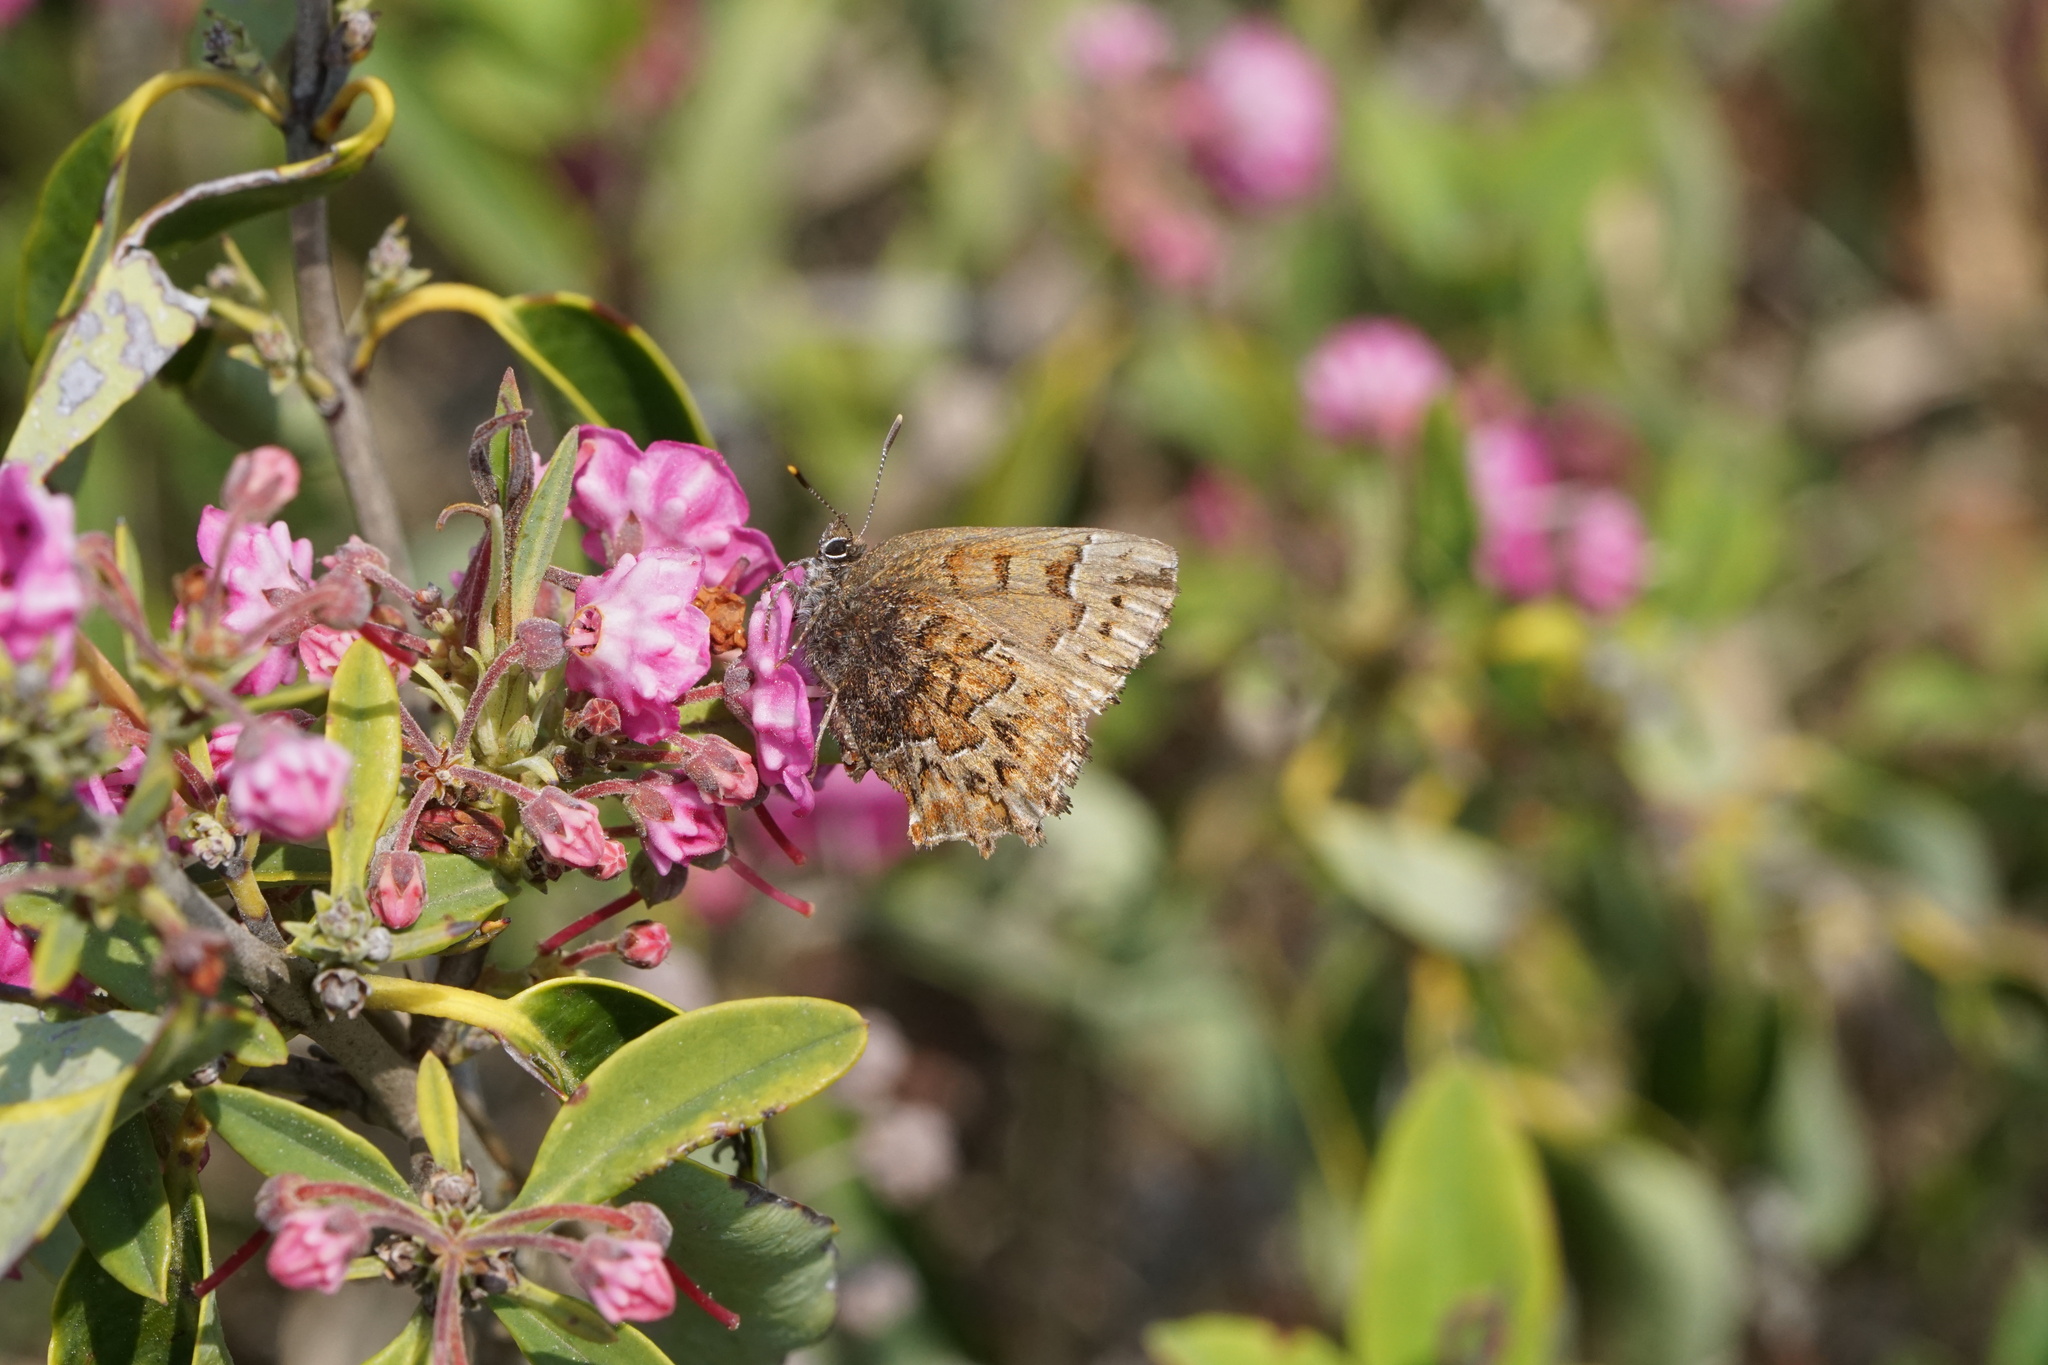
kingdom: Animalia
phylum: Arthropoda
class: Insecta
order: Lepidoptera
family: Lycaenidae
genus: Incisalia
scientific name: Incisalia niphon
